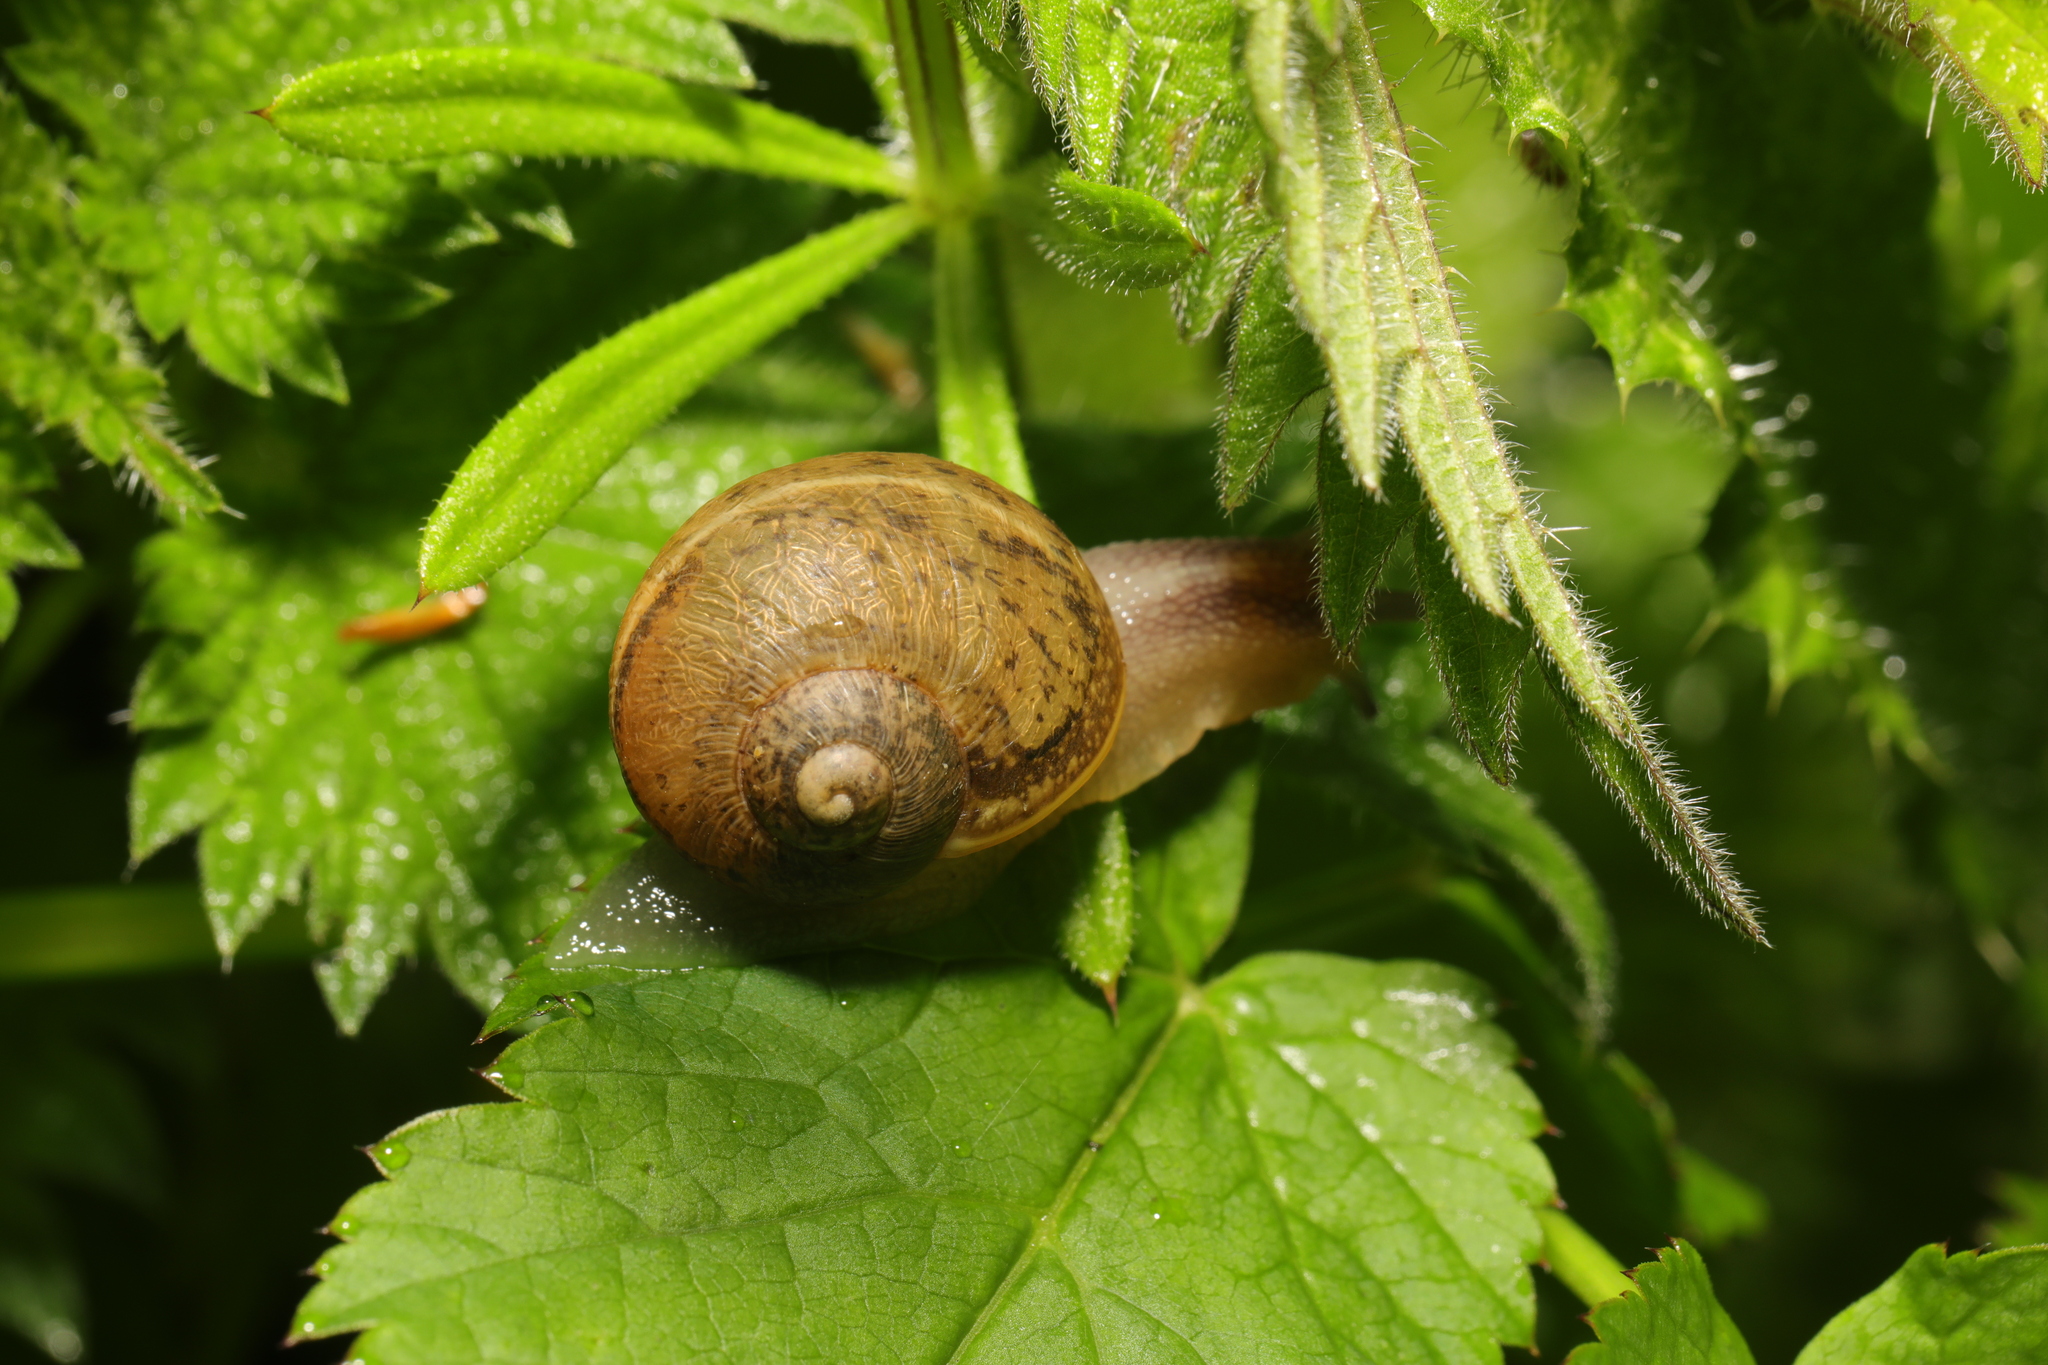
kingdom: Animalia
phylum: Mollusca
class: Gastropoda
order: Stylommatophora
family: Helicidae
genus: Cornu
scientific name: Cornu aspersum
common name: Brown garden snail
